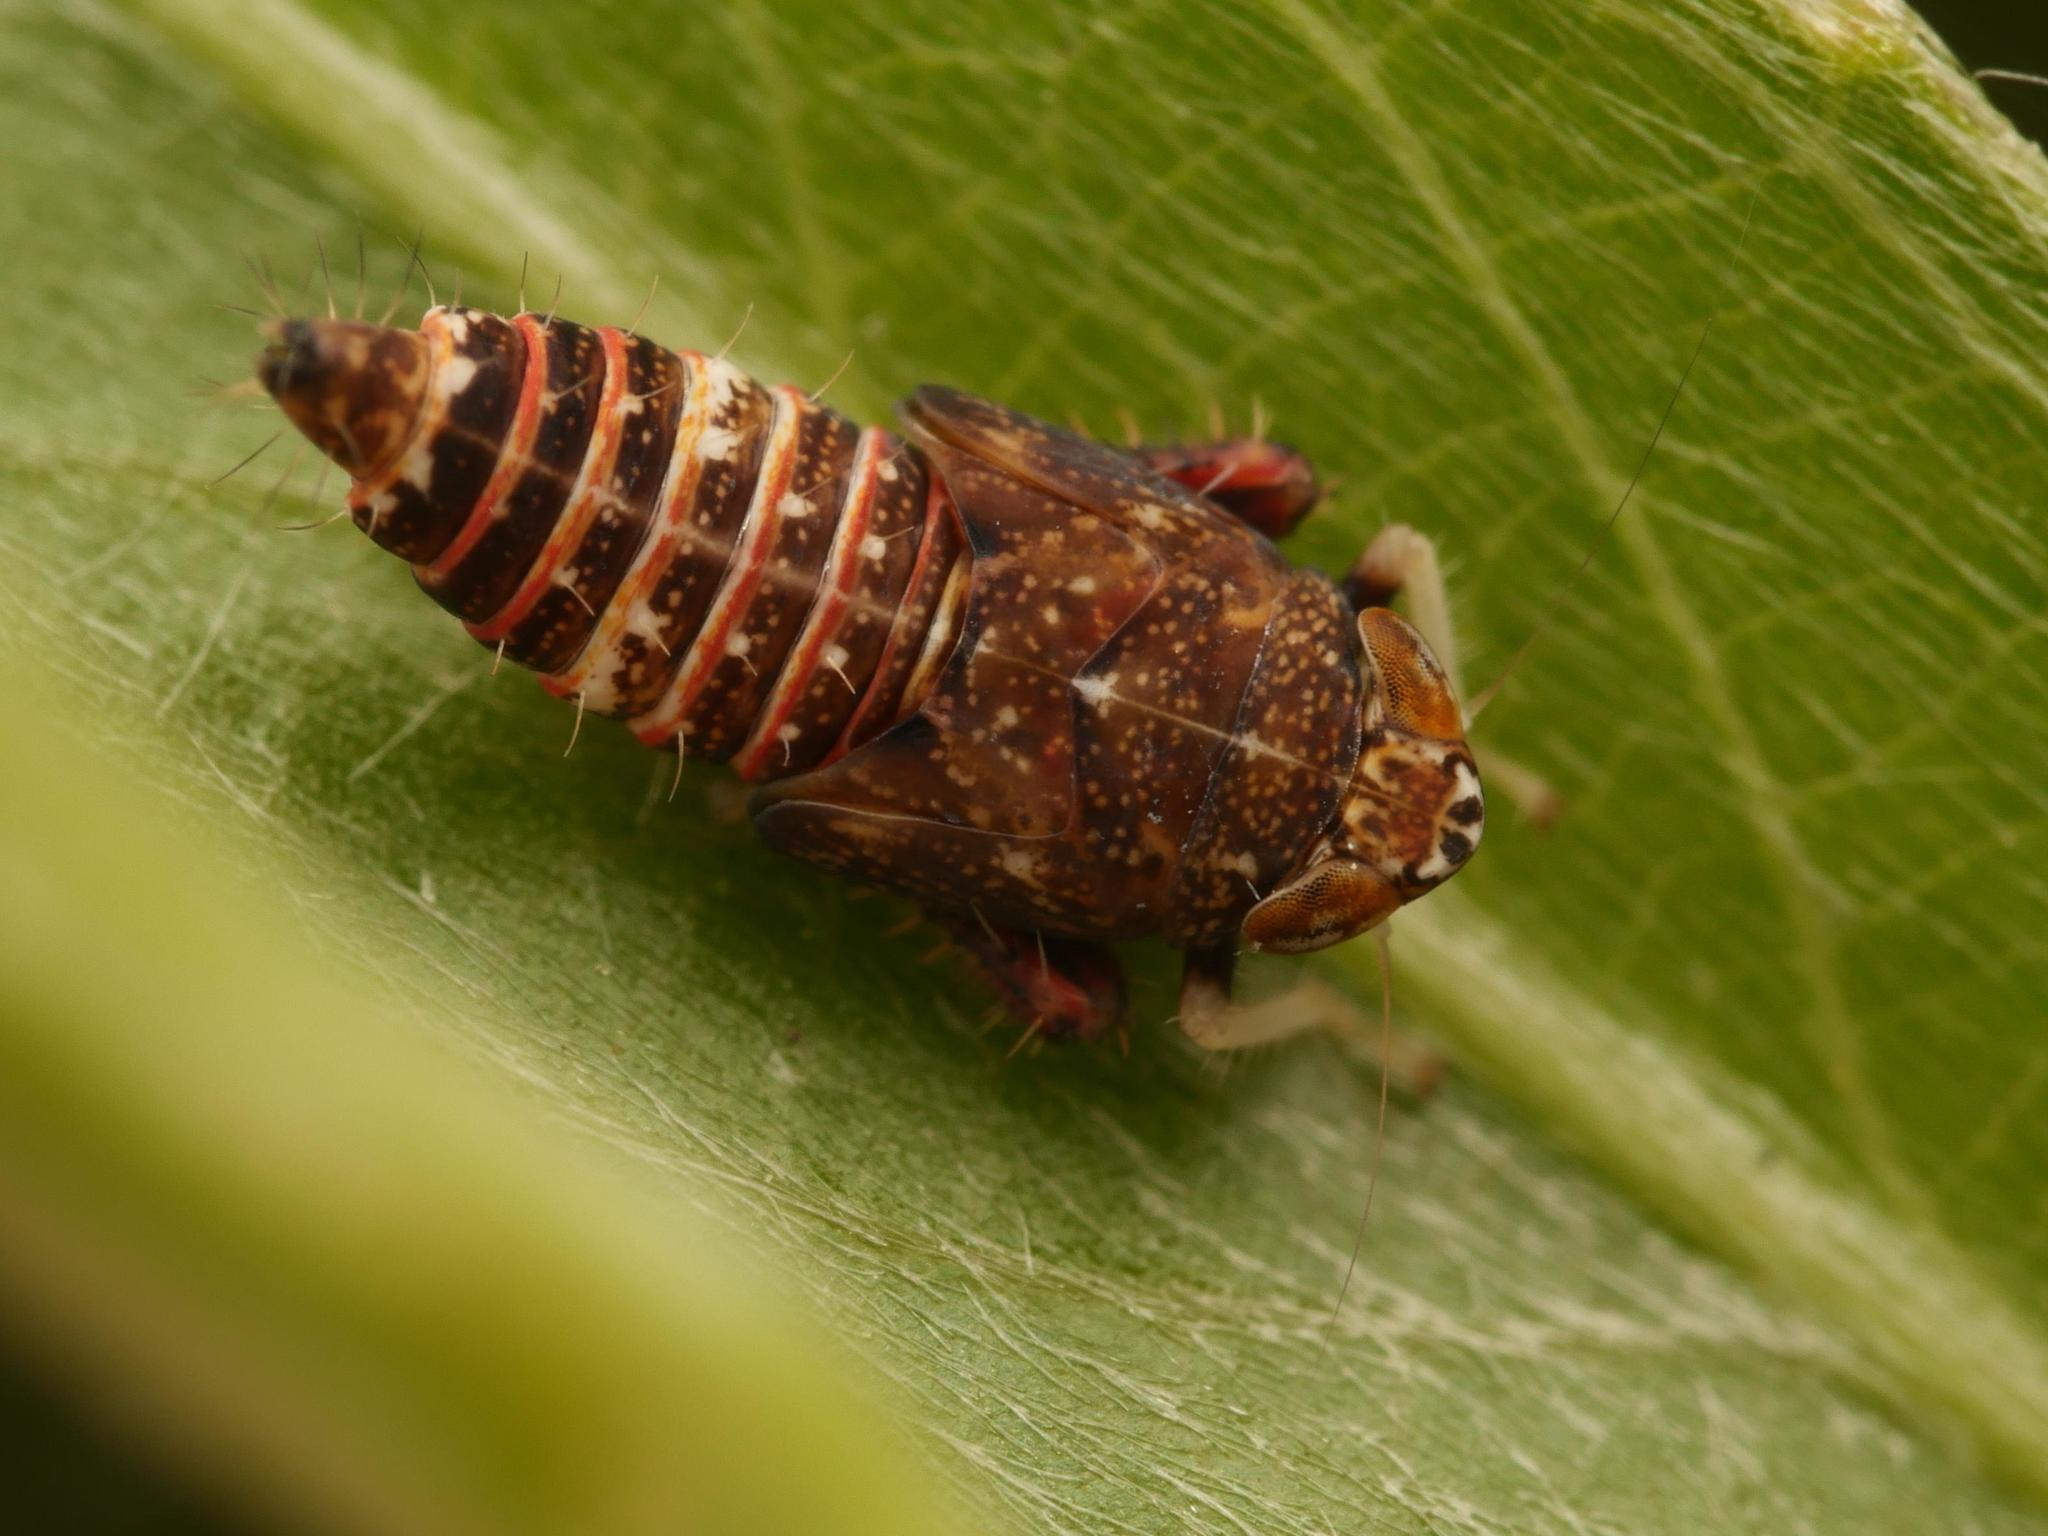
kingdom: Animalia
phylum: Arthropoda
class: Insecta
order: Hemiptera
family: Cicadellidae
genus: Orientus
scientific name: Orientus ishidae
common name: Japanese leafhopper
